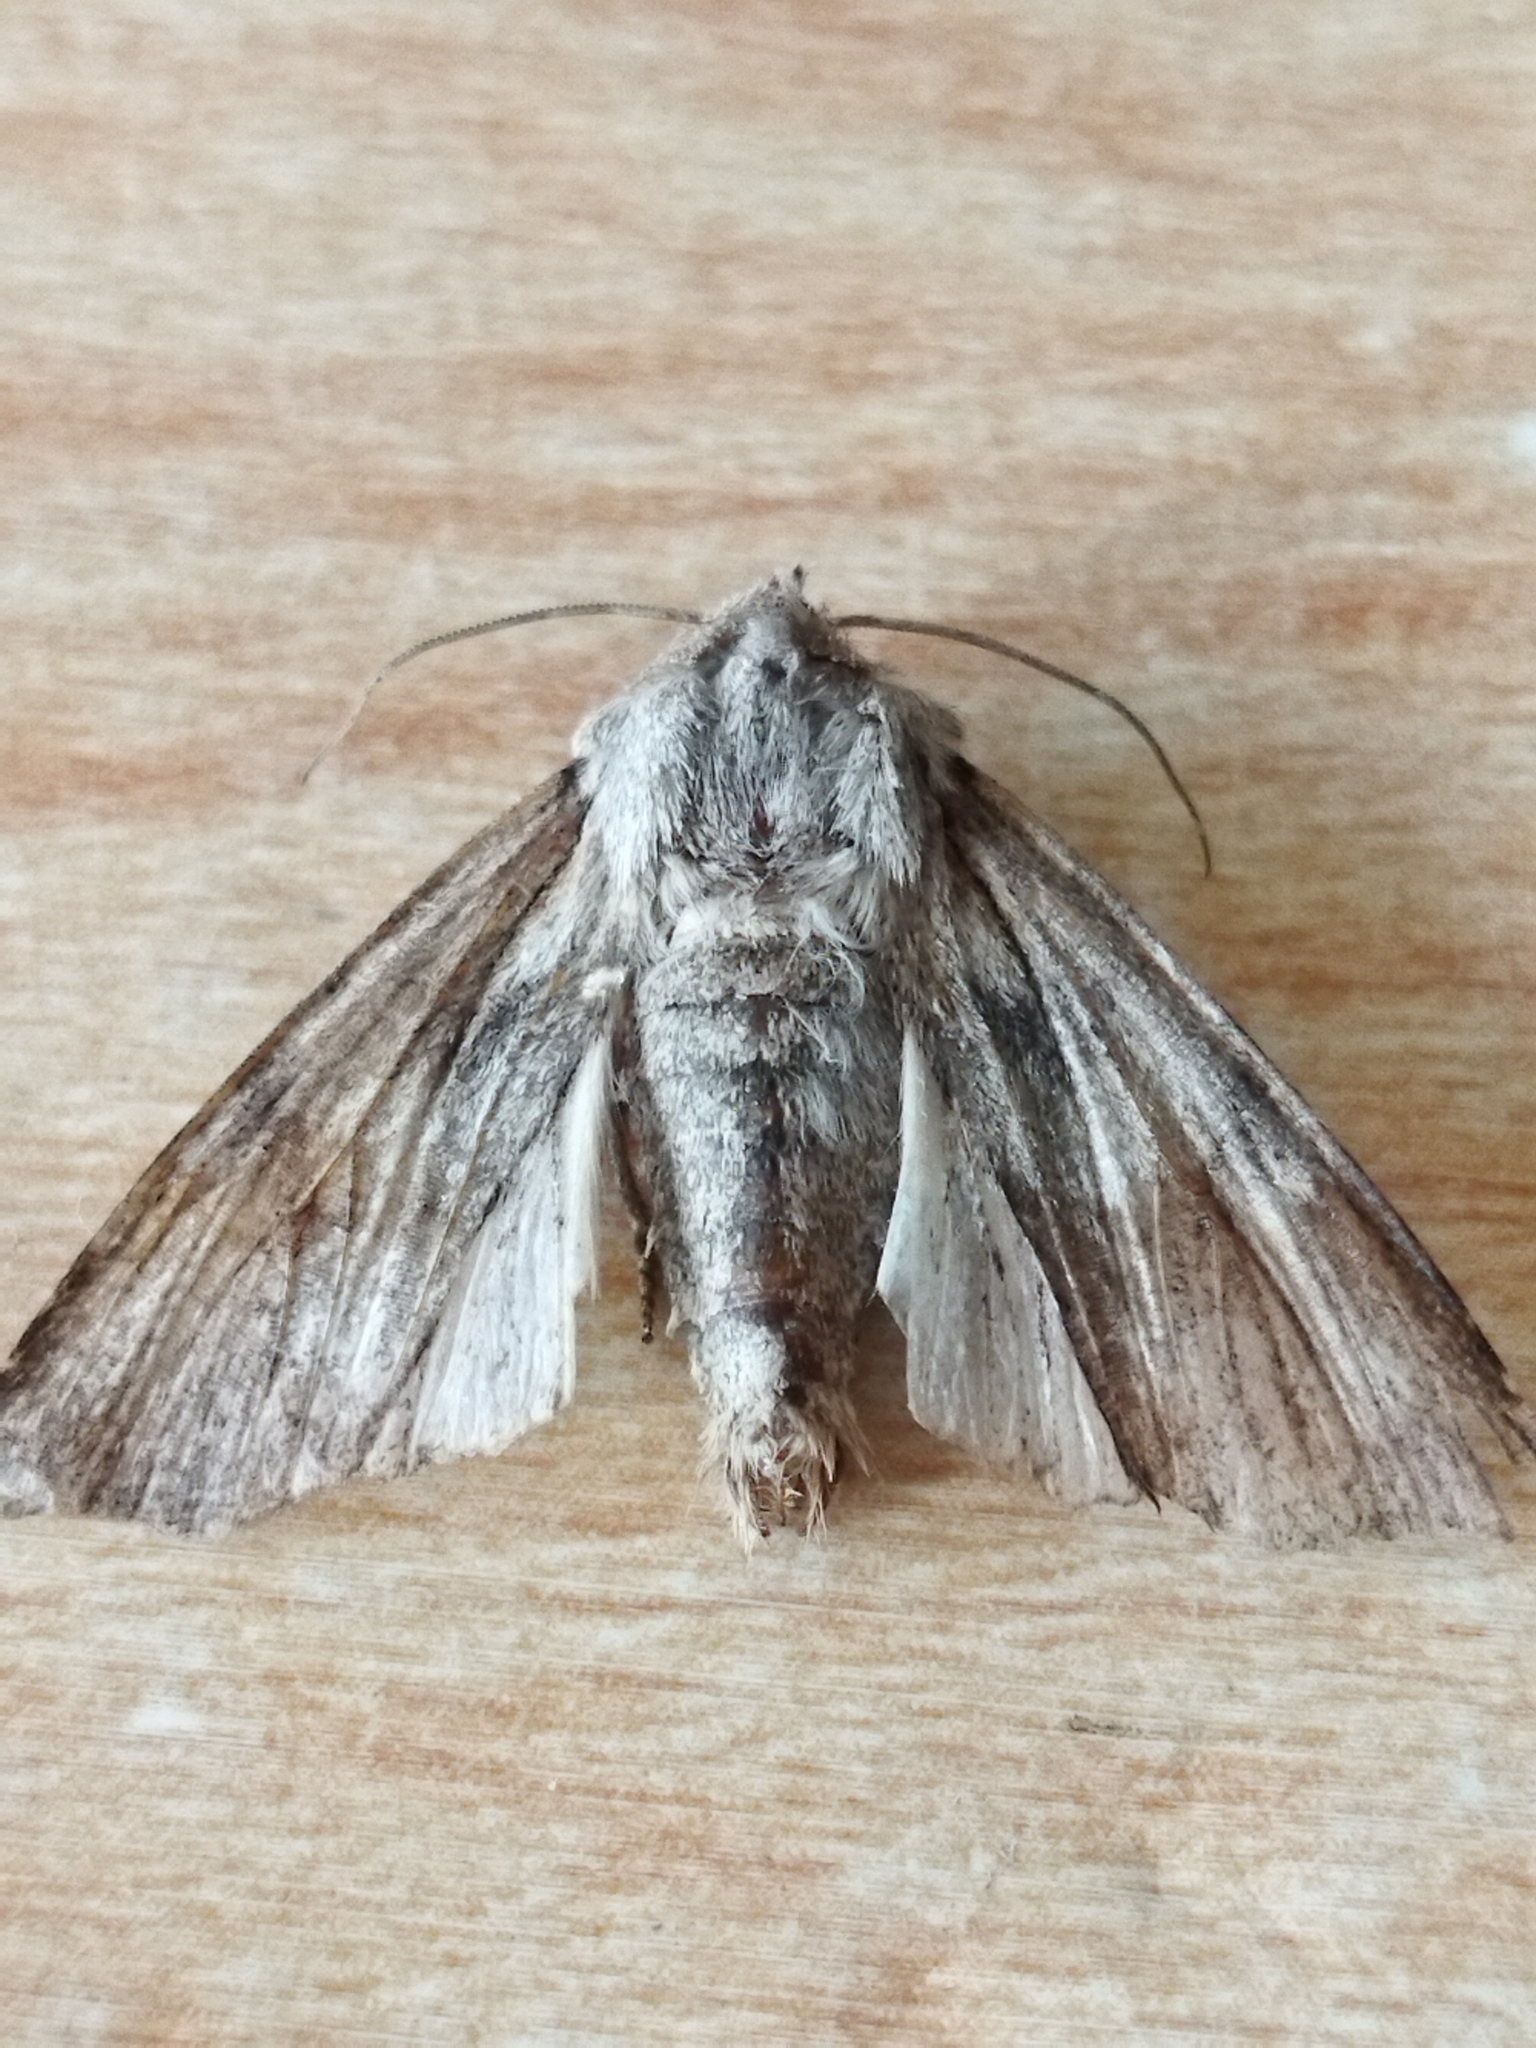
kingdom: Animalia
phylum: Arthropoda
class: Insecta
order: Lepidoptera
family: Noctuidae
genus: Egira
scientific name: Egira
